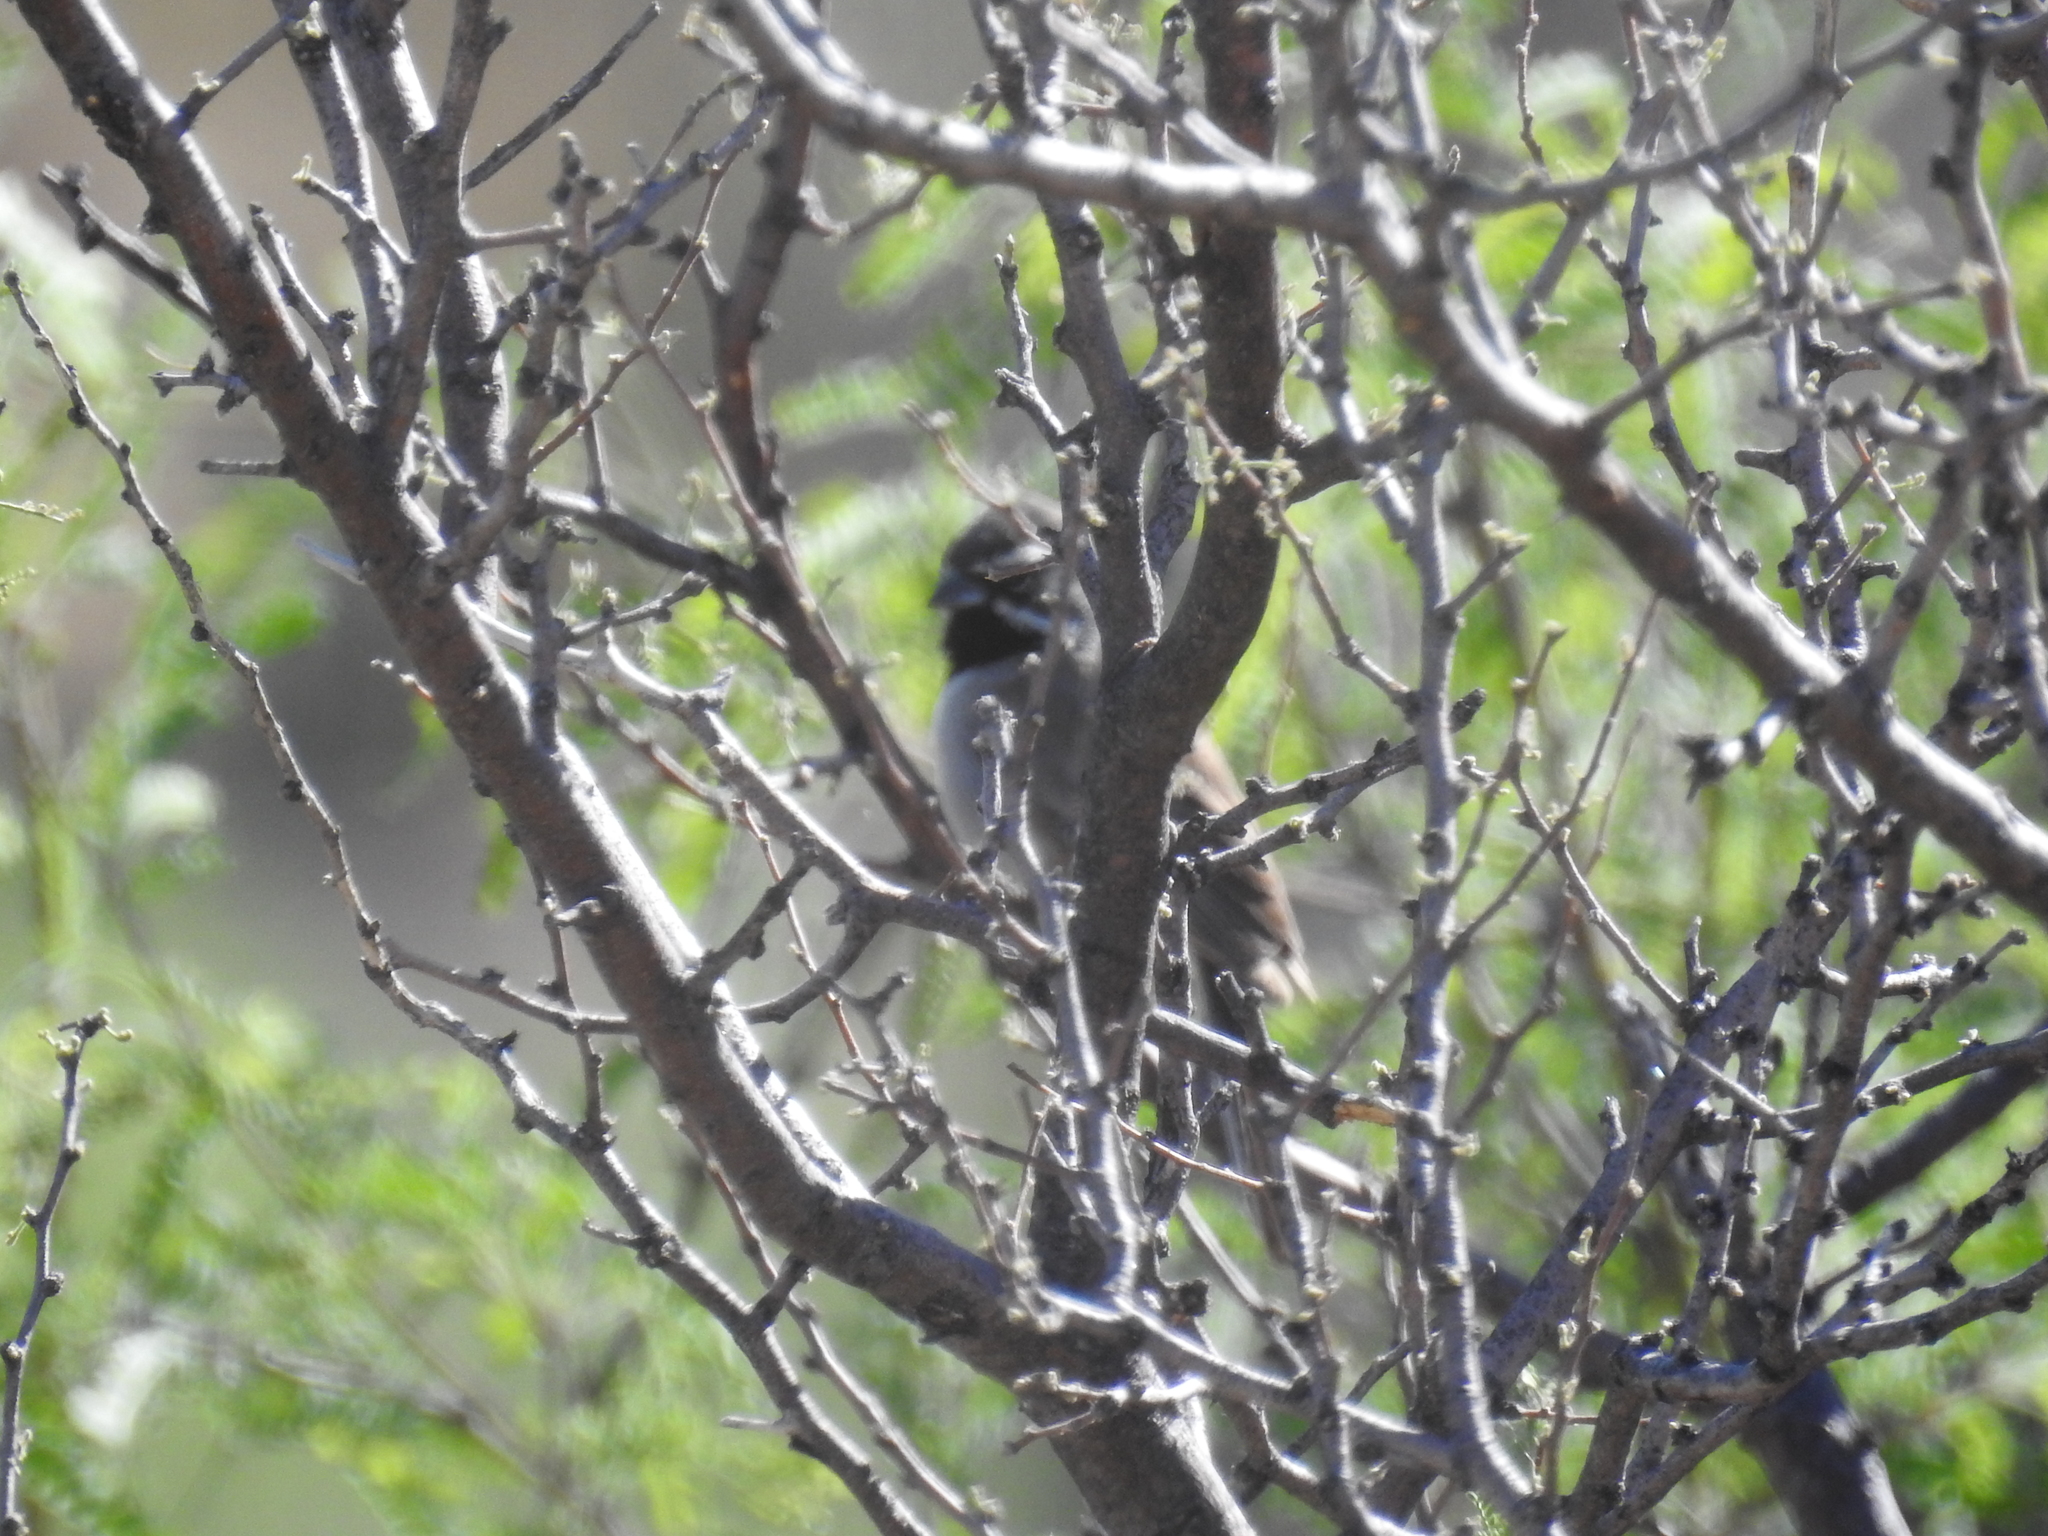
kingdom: Animalia
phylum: Chordata
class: Aves
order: Passeriformes
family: Passerellidae
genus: Amphispiza
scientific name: Amphispiza bilineata
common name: Black-throated sparrow
